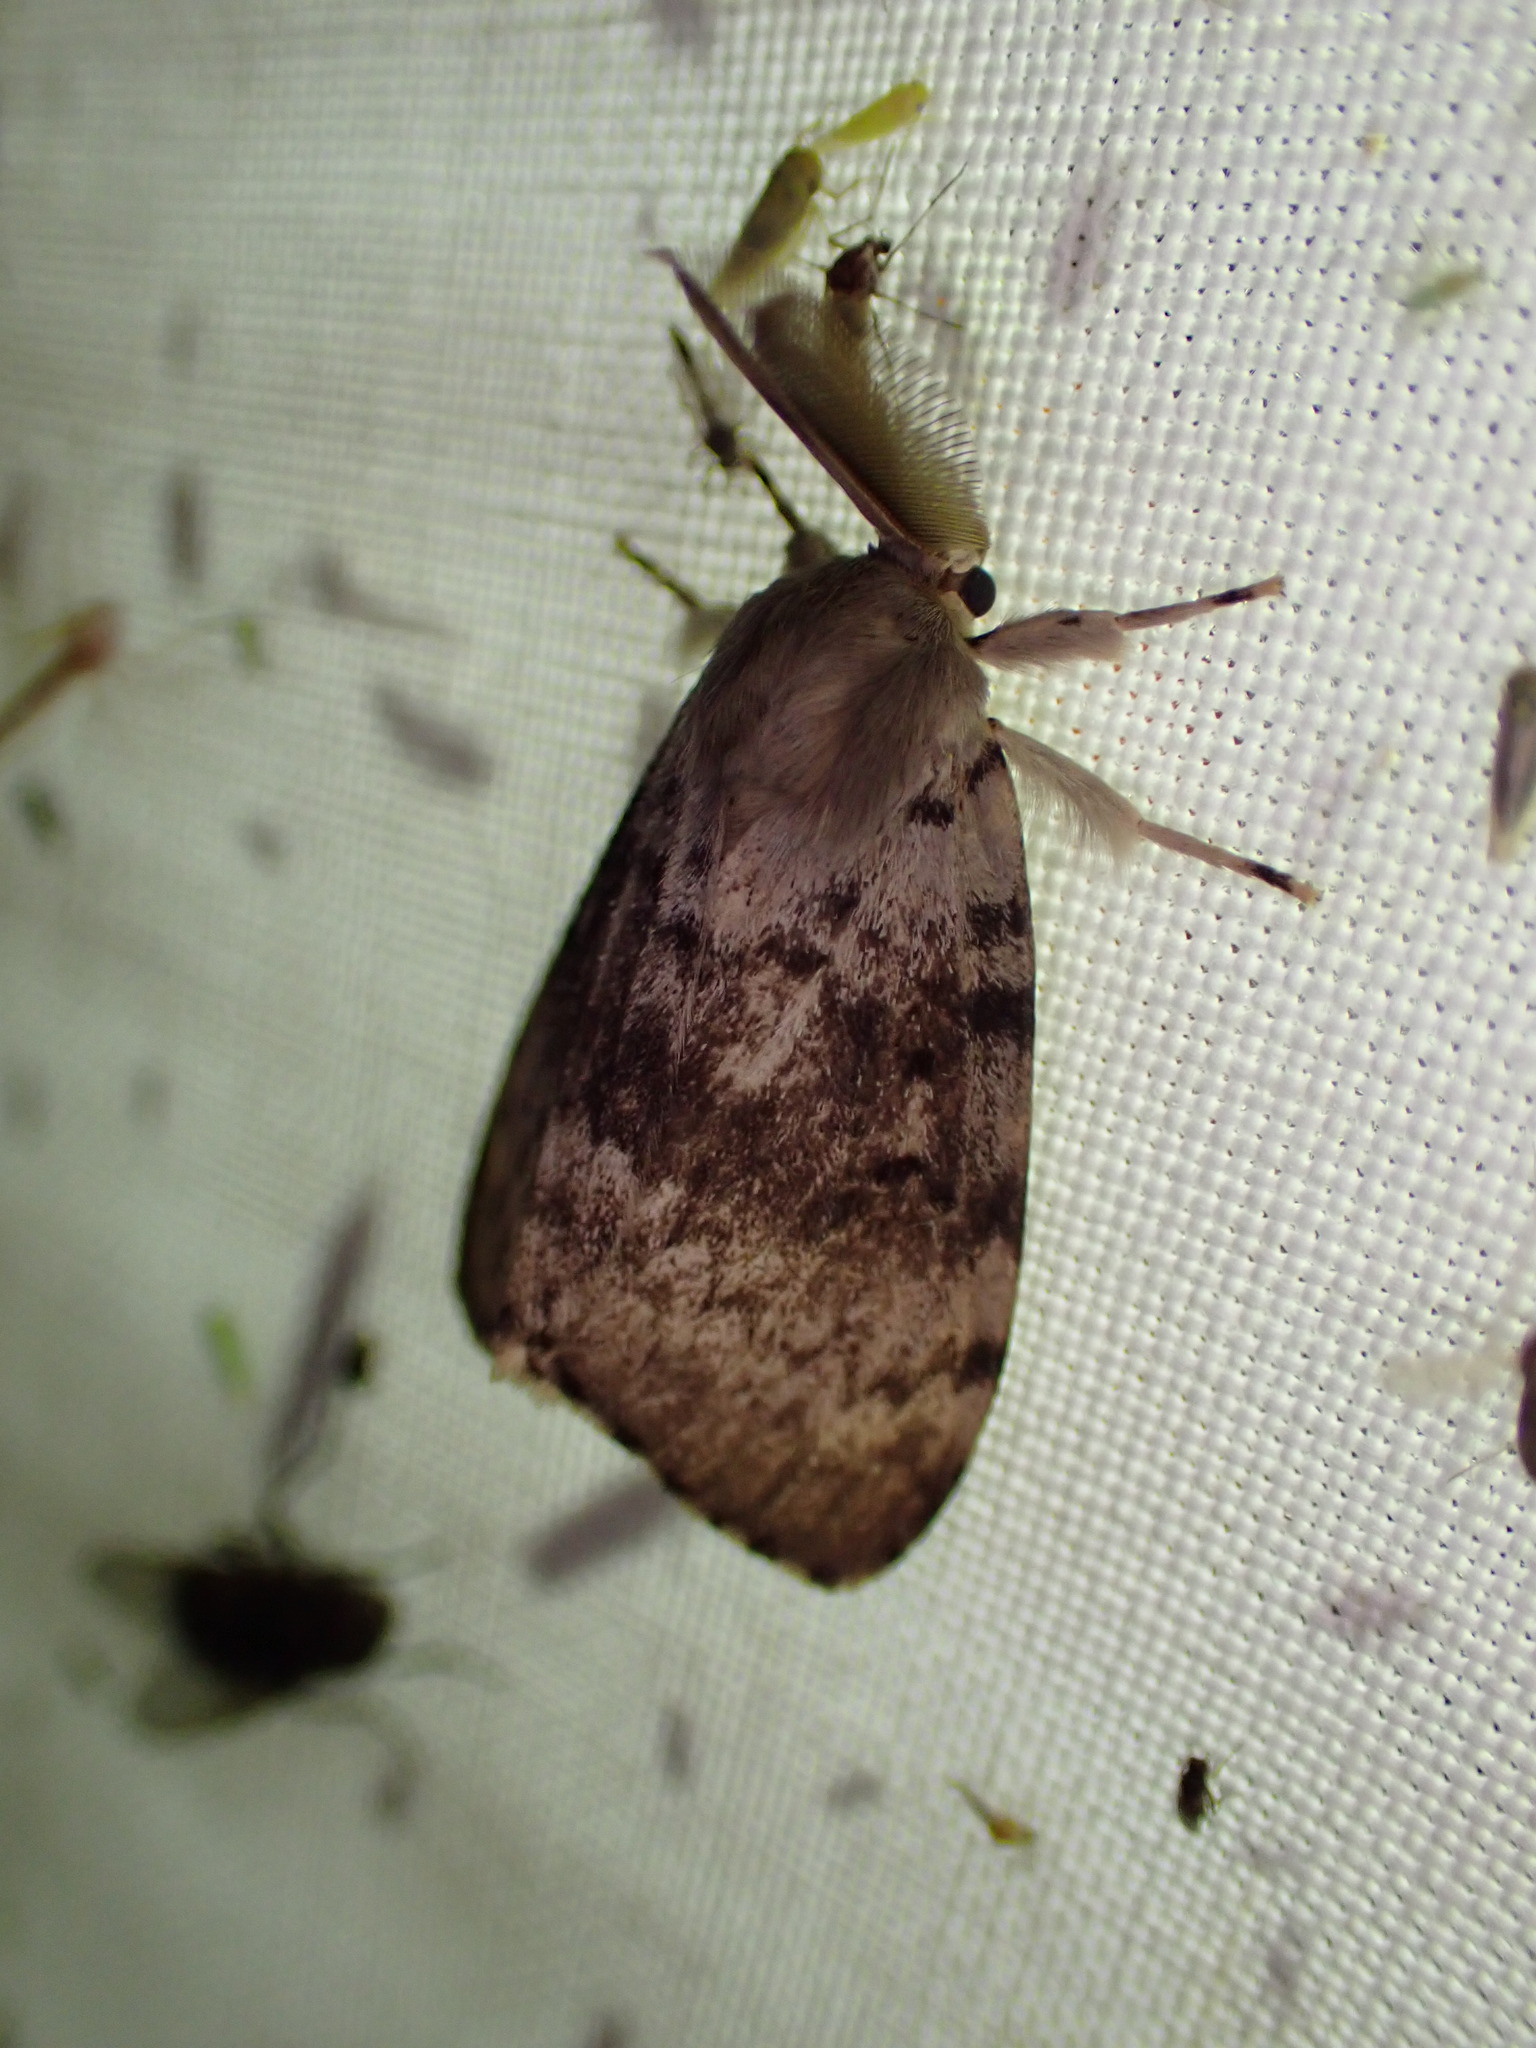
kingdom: Animalia
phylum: Arthropoda
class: Insecta
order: Lepidoptera
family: Erebidae
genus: Lymantria
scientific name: Lymantria dispar
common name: Gypsy moth
